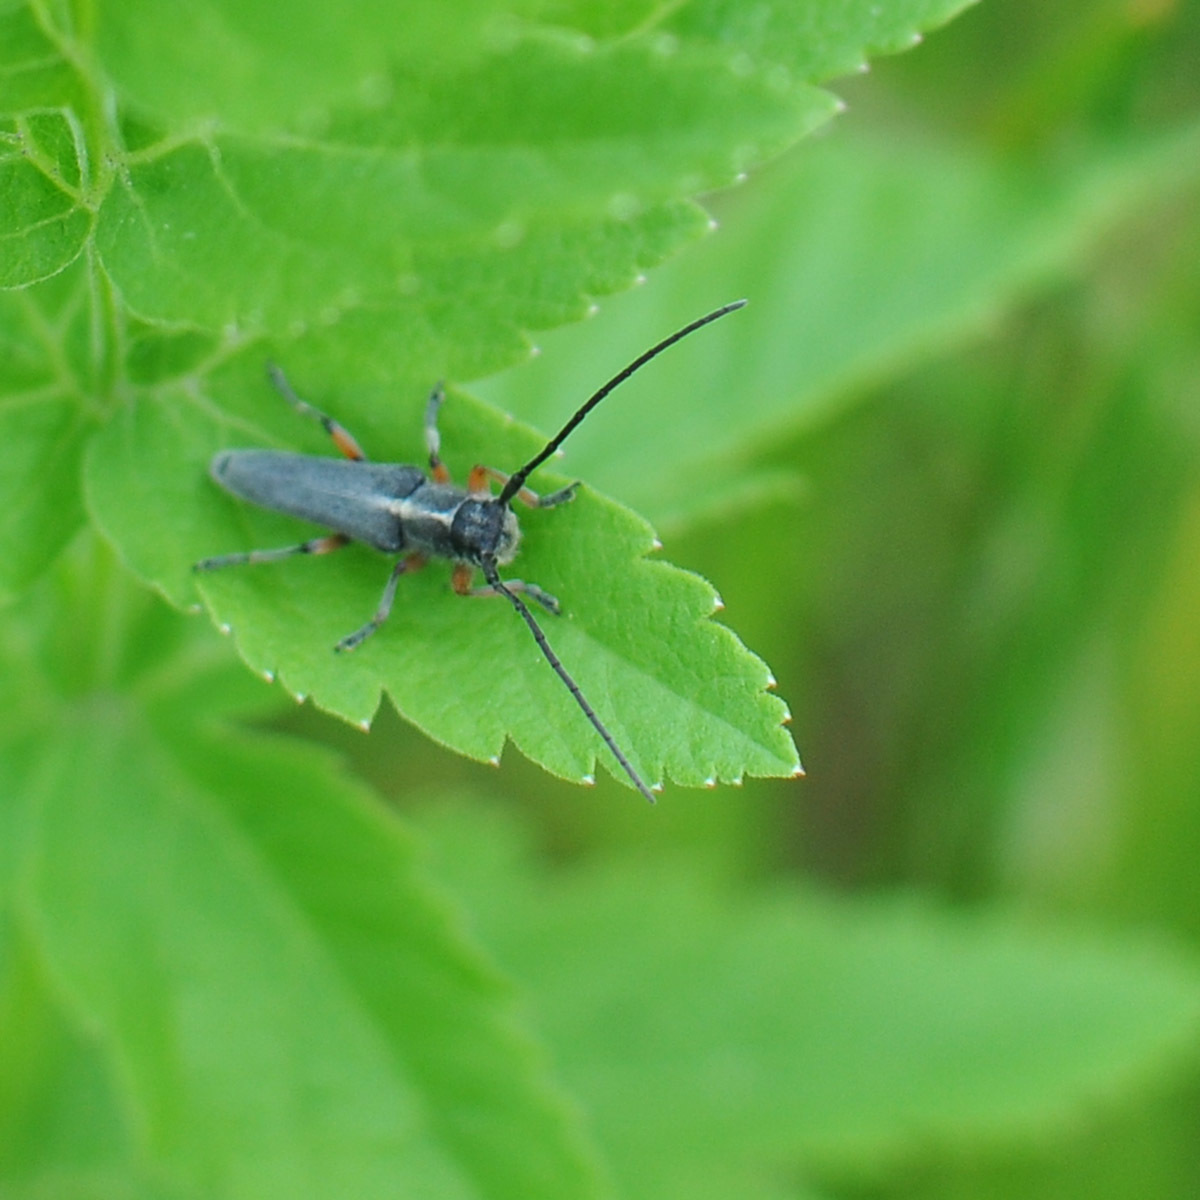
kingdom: Animalia
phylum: Arthropoda
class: Insecta
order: Coleoptera
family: Cerambycidae
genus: Phytoecia
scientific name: Phytoecia icterica
